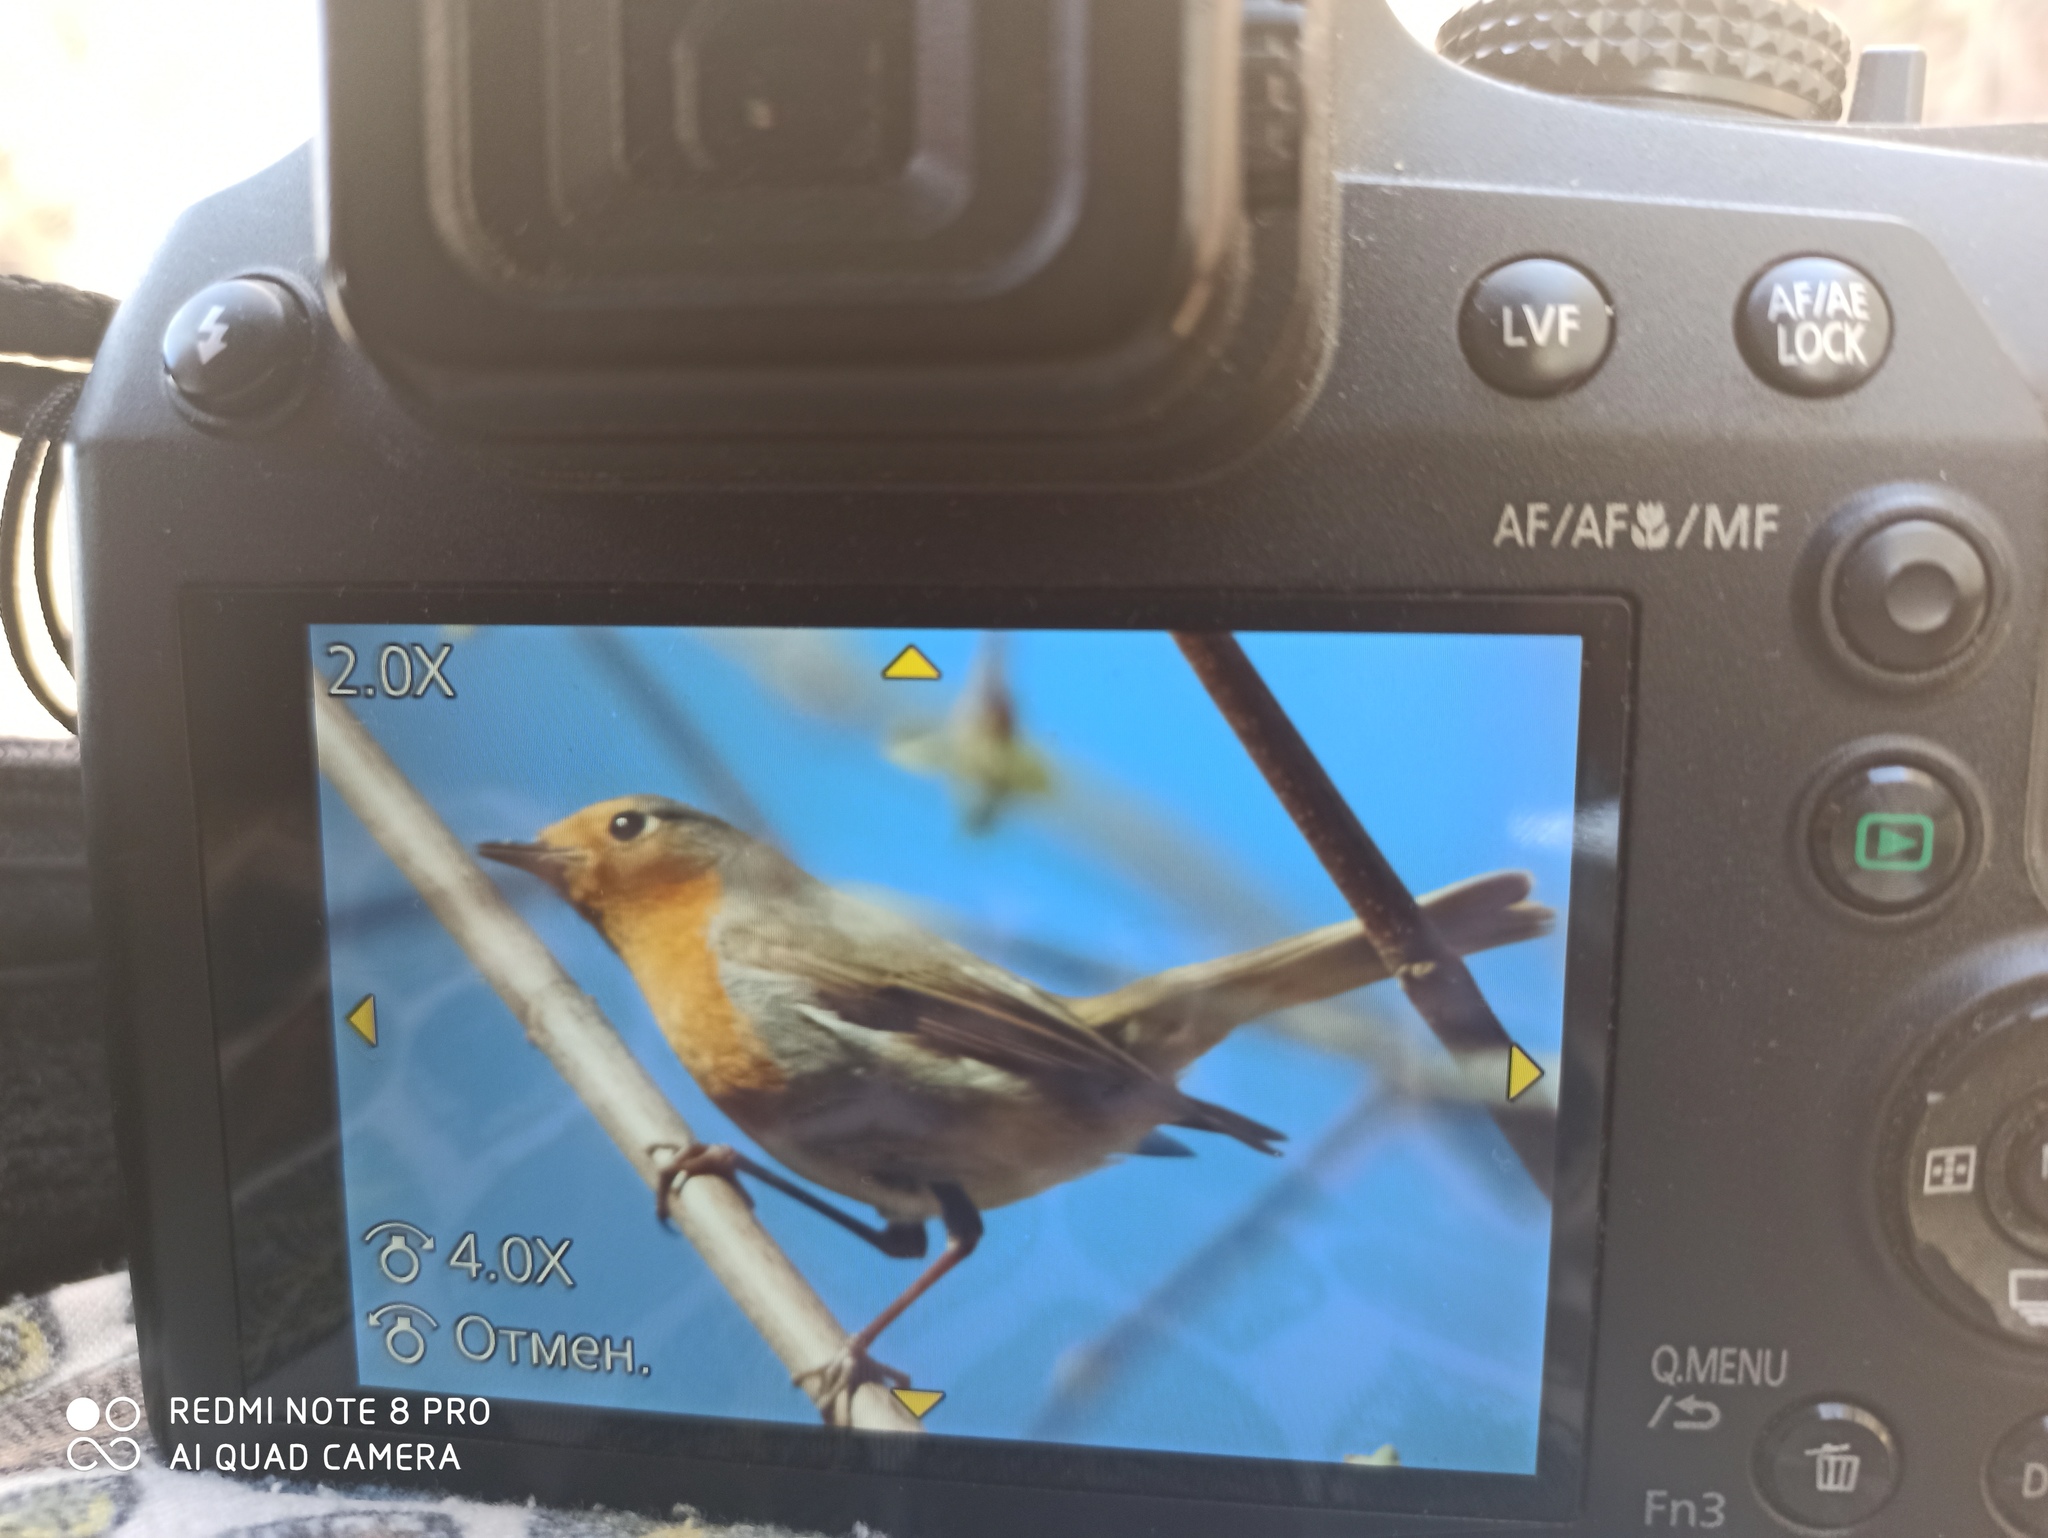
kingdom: Animalia
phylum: Chordata
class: Aves
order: Passeriformes
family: Muscicapidae
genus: Erithacus
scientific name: Erithacus rubecula
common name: European robin
